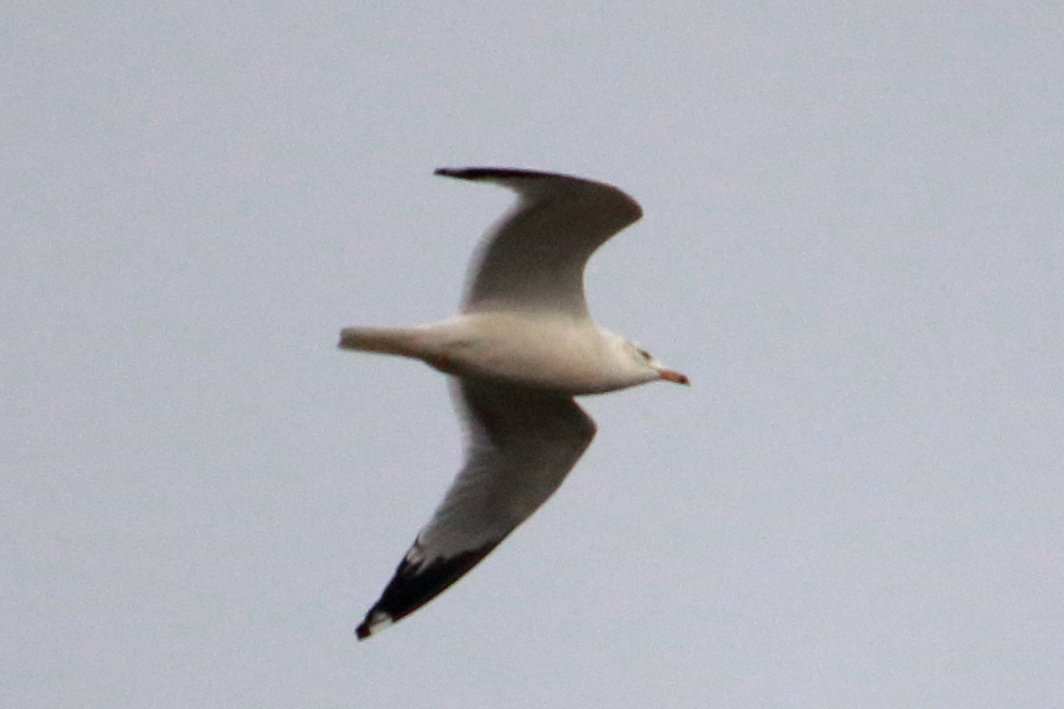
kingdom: Animalia
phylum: Chordata
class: Aves
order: Charadriiformes
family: Laridae
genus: Larus
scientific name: Larus argentatus
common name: Herring gull
